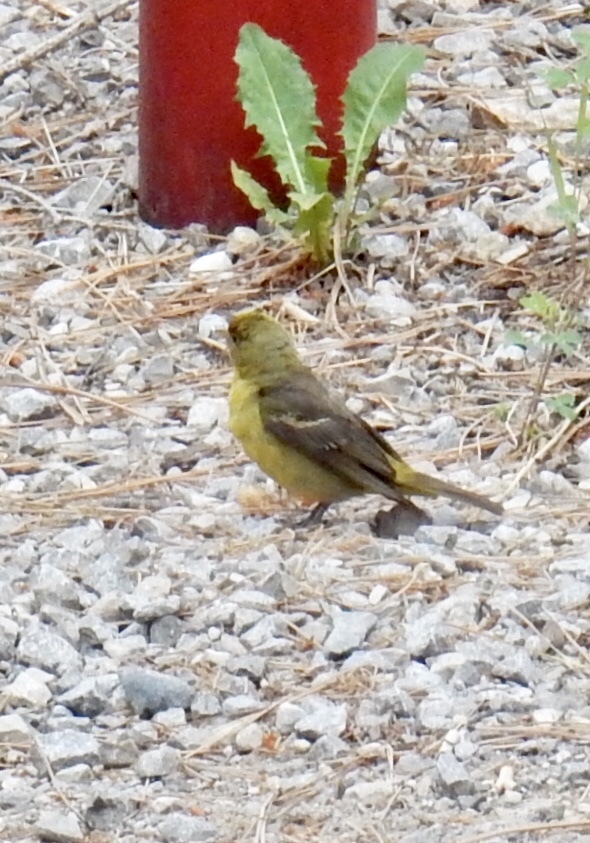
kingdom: Animalia
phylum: Chordata
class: Aves
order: Passeriformes
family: Cardinalidae
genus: Piranga
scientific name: Piranga ludoviciana
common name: Western tanager
